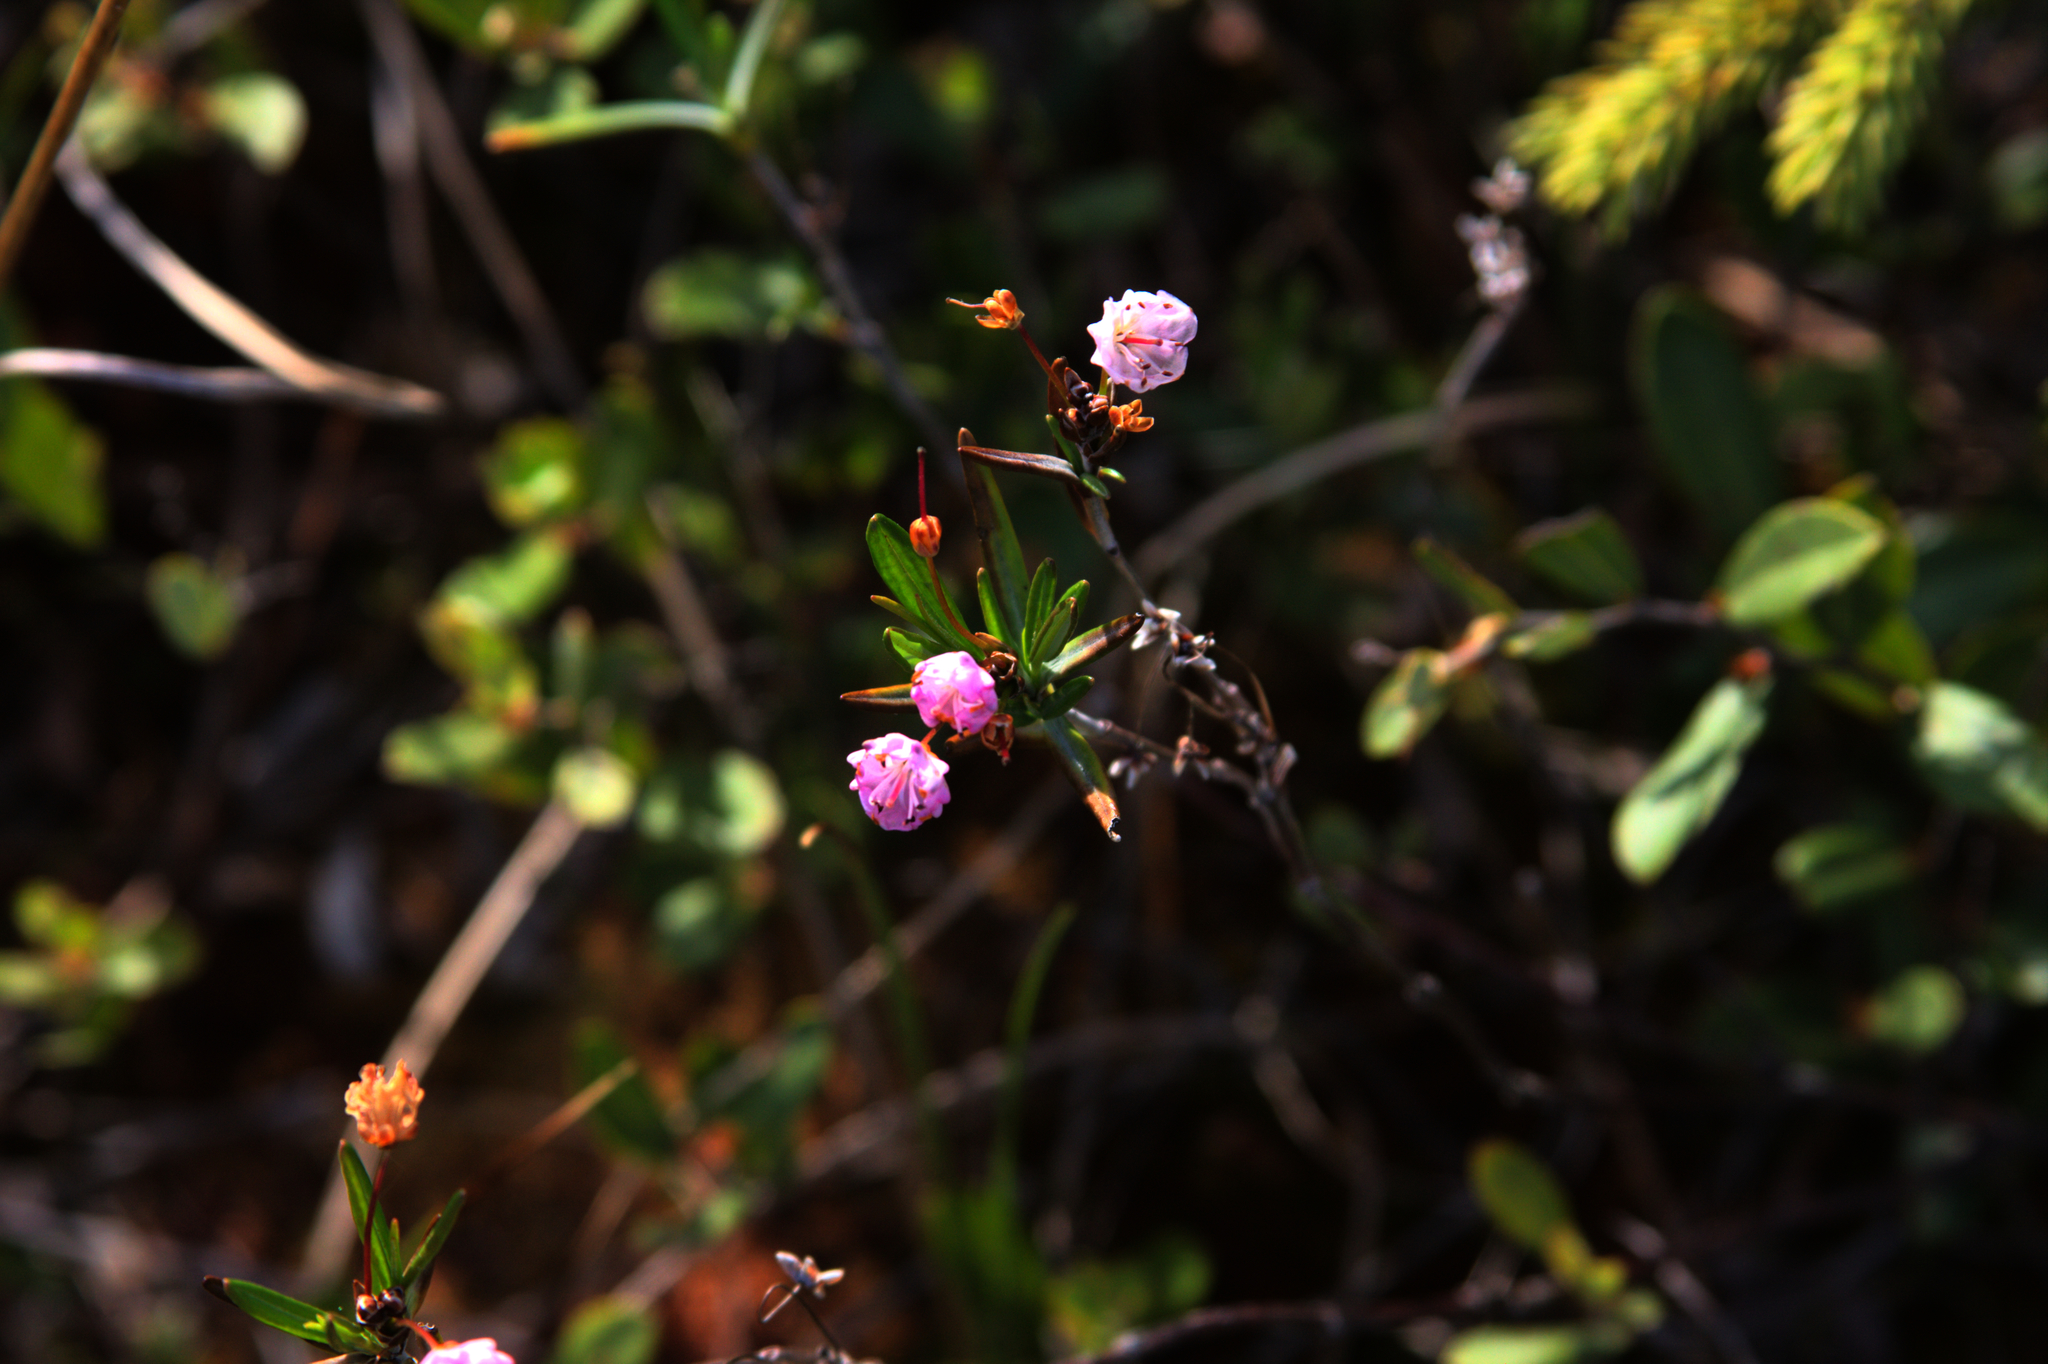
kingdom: Plantae
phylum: Tracheophyta
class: Magnoliopsida
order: Ericales
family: Ericaceae
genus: Kalmia
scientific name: Kalmia polifolia
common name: Bog-laurel
